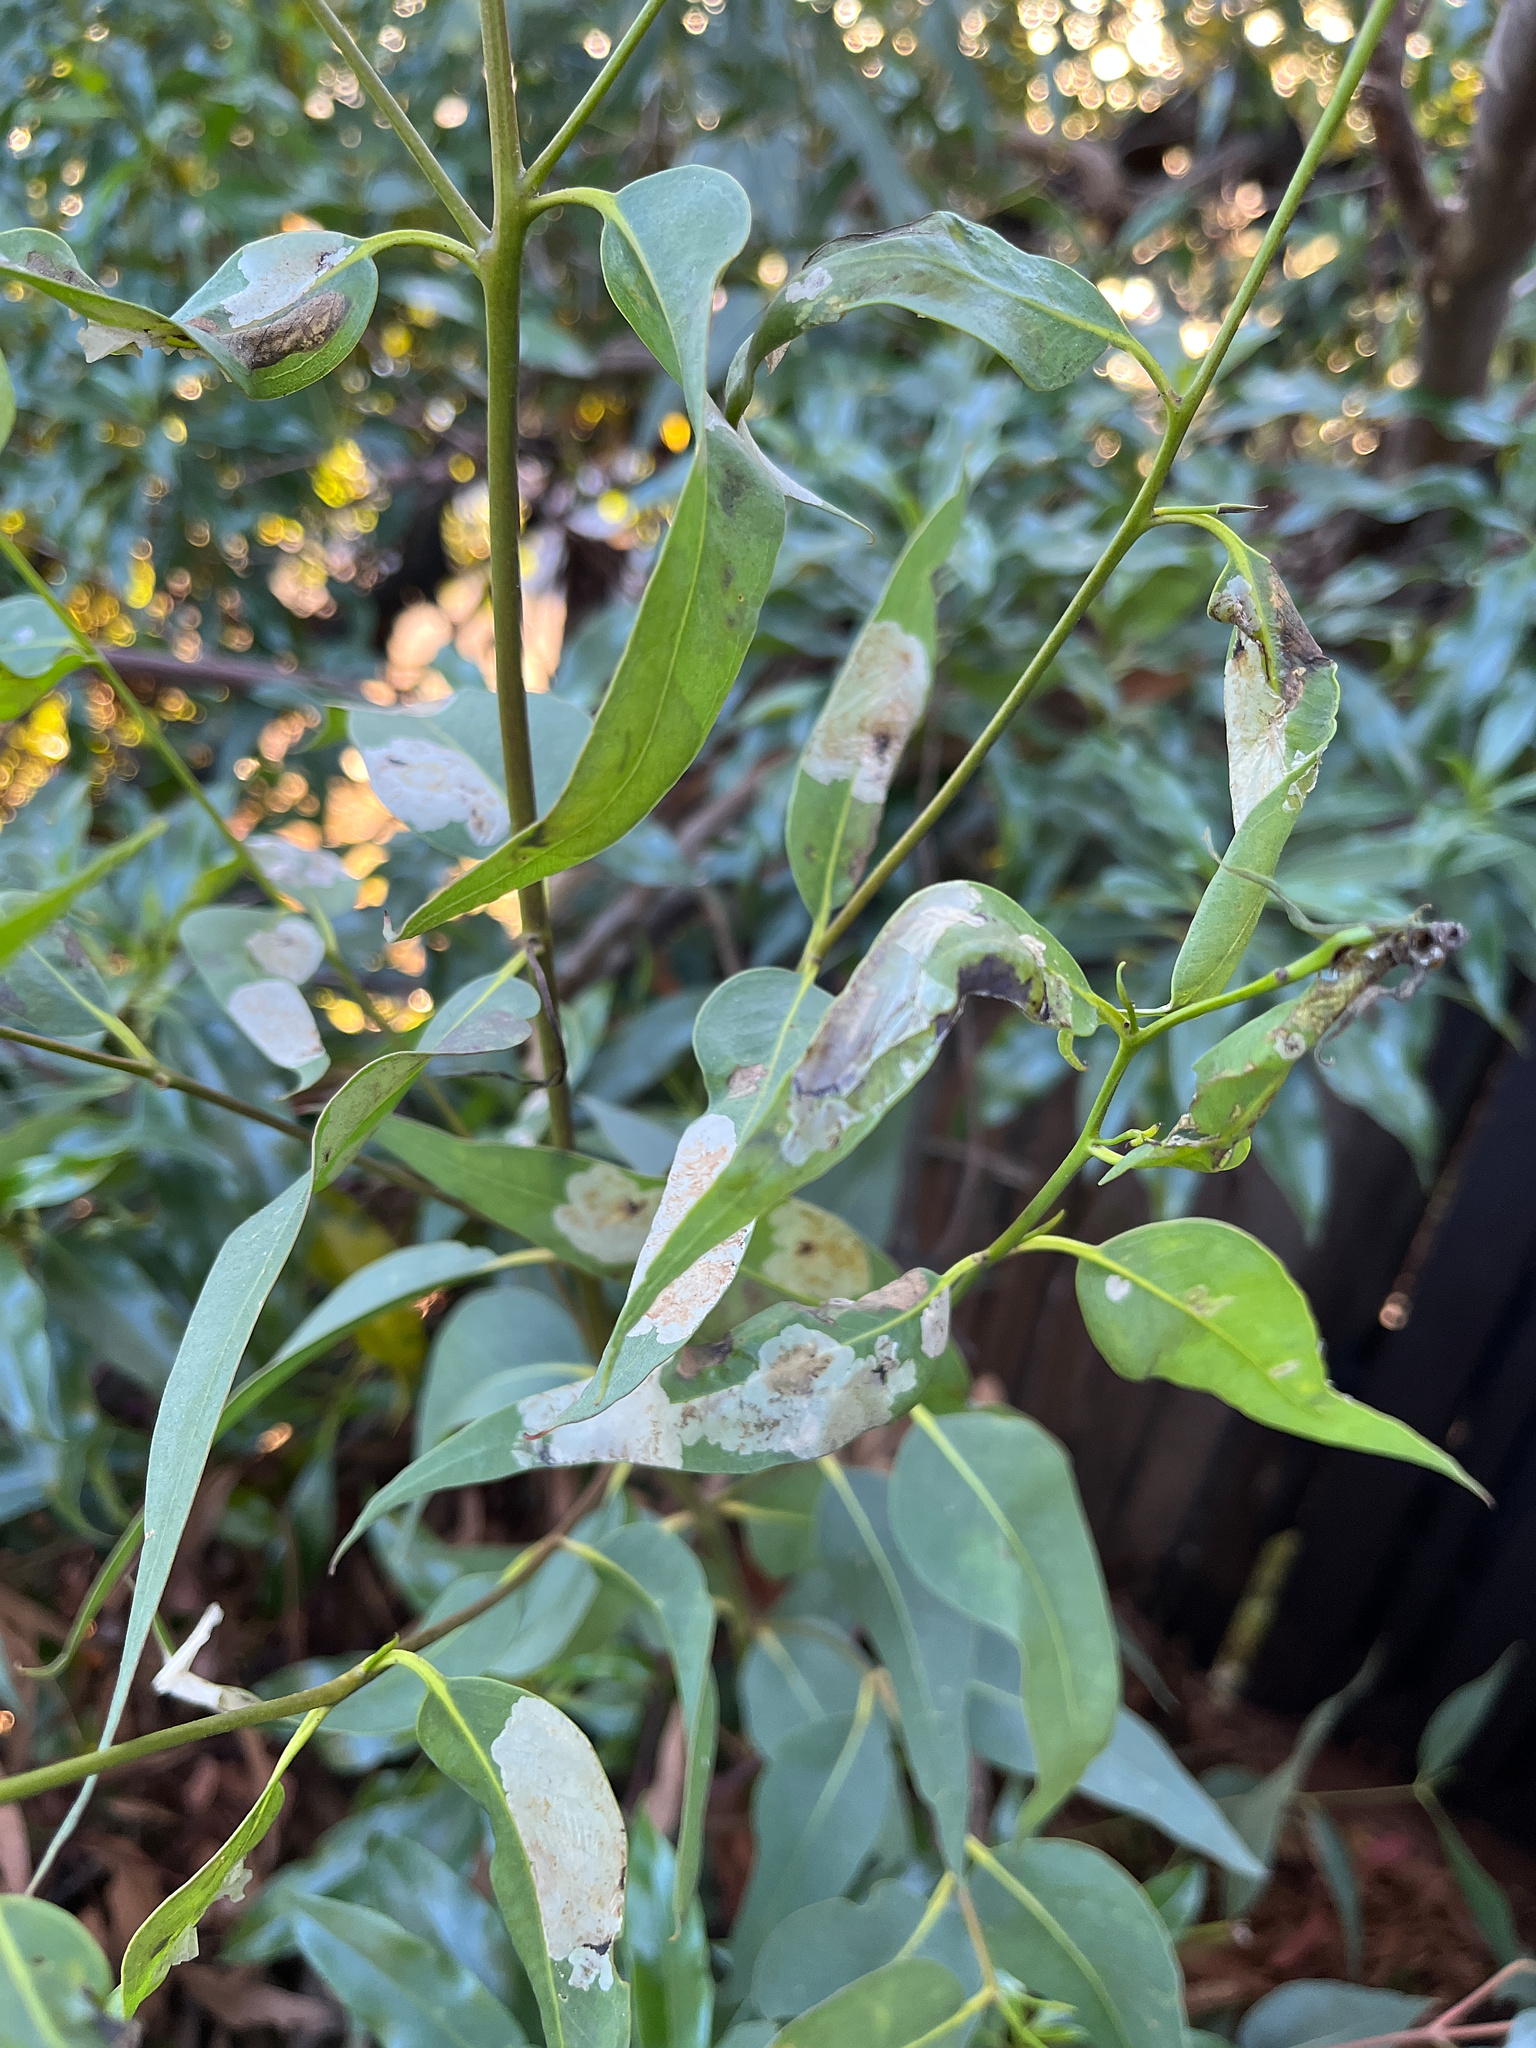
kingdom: Animalia
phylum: Arthropoda
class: Insecta
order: Hymenoptera
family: Pergidae
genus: Phylacteophaga
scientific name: Phylacteophaga froggatti
